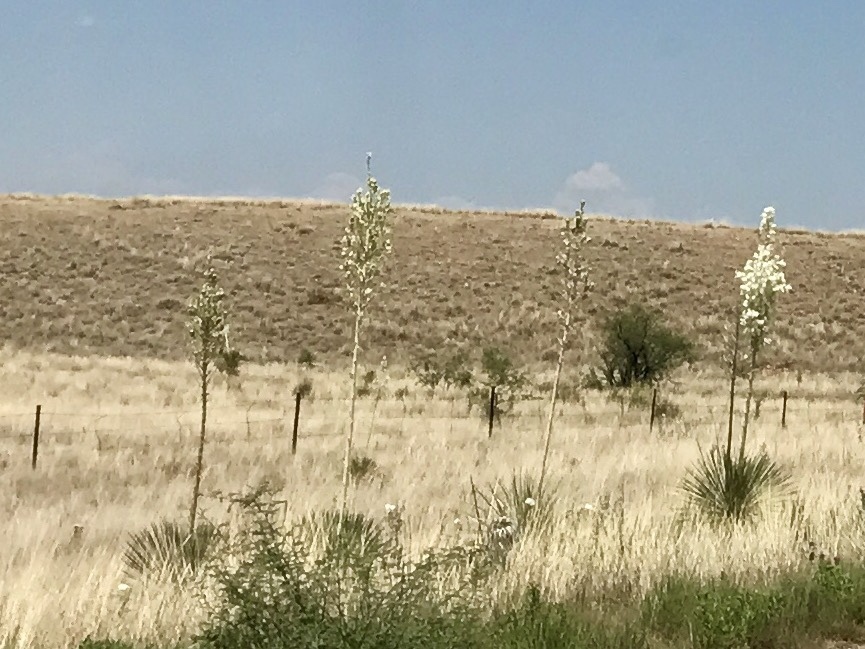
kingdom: Plantae
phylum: Tracheophyta
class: Liliopsida
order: Asparagales
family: Asparagaceae
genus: Yucca
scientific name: Yucca elata
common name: Palmella
